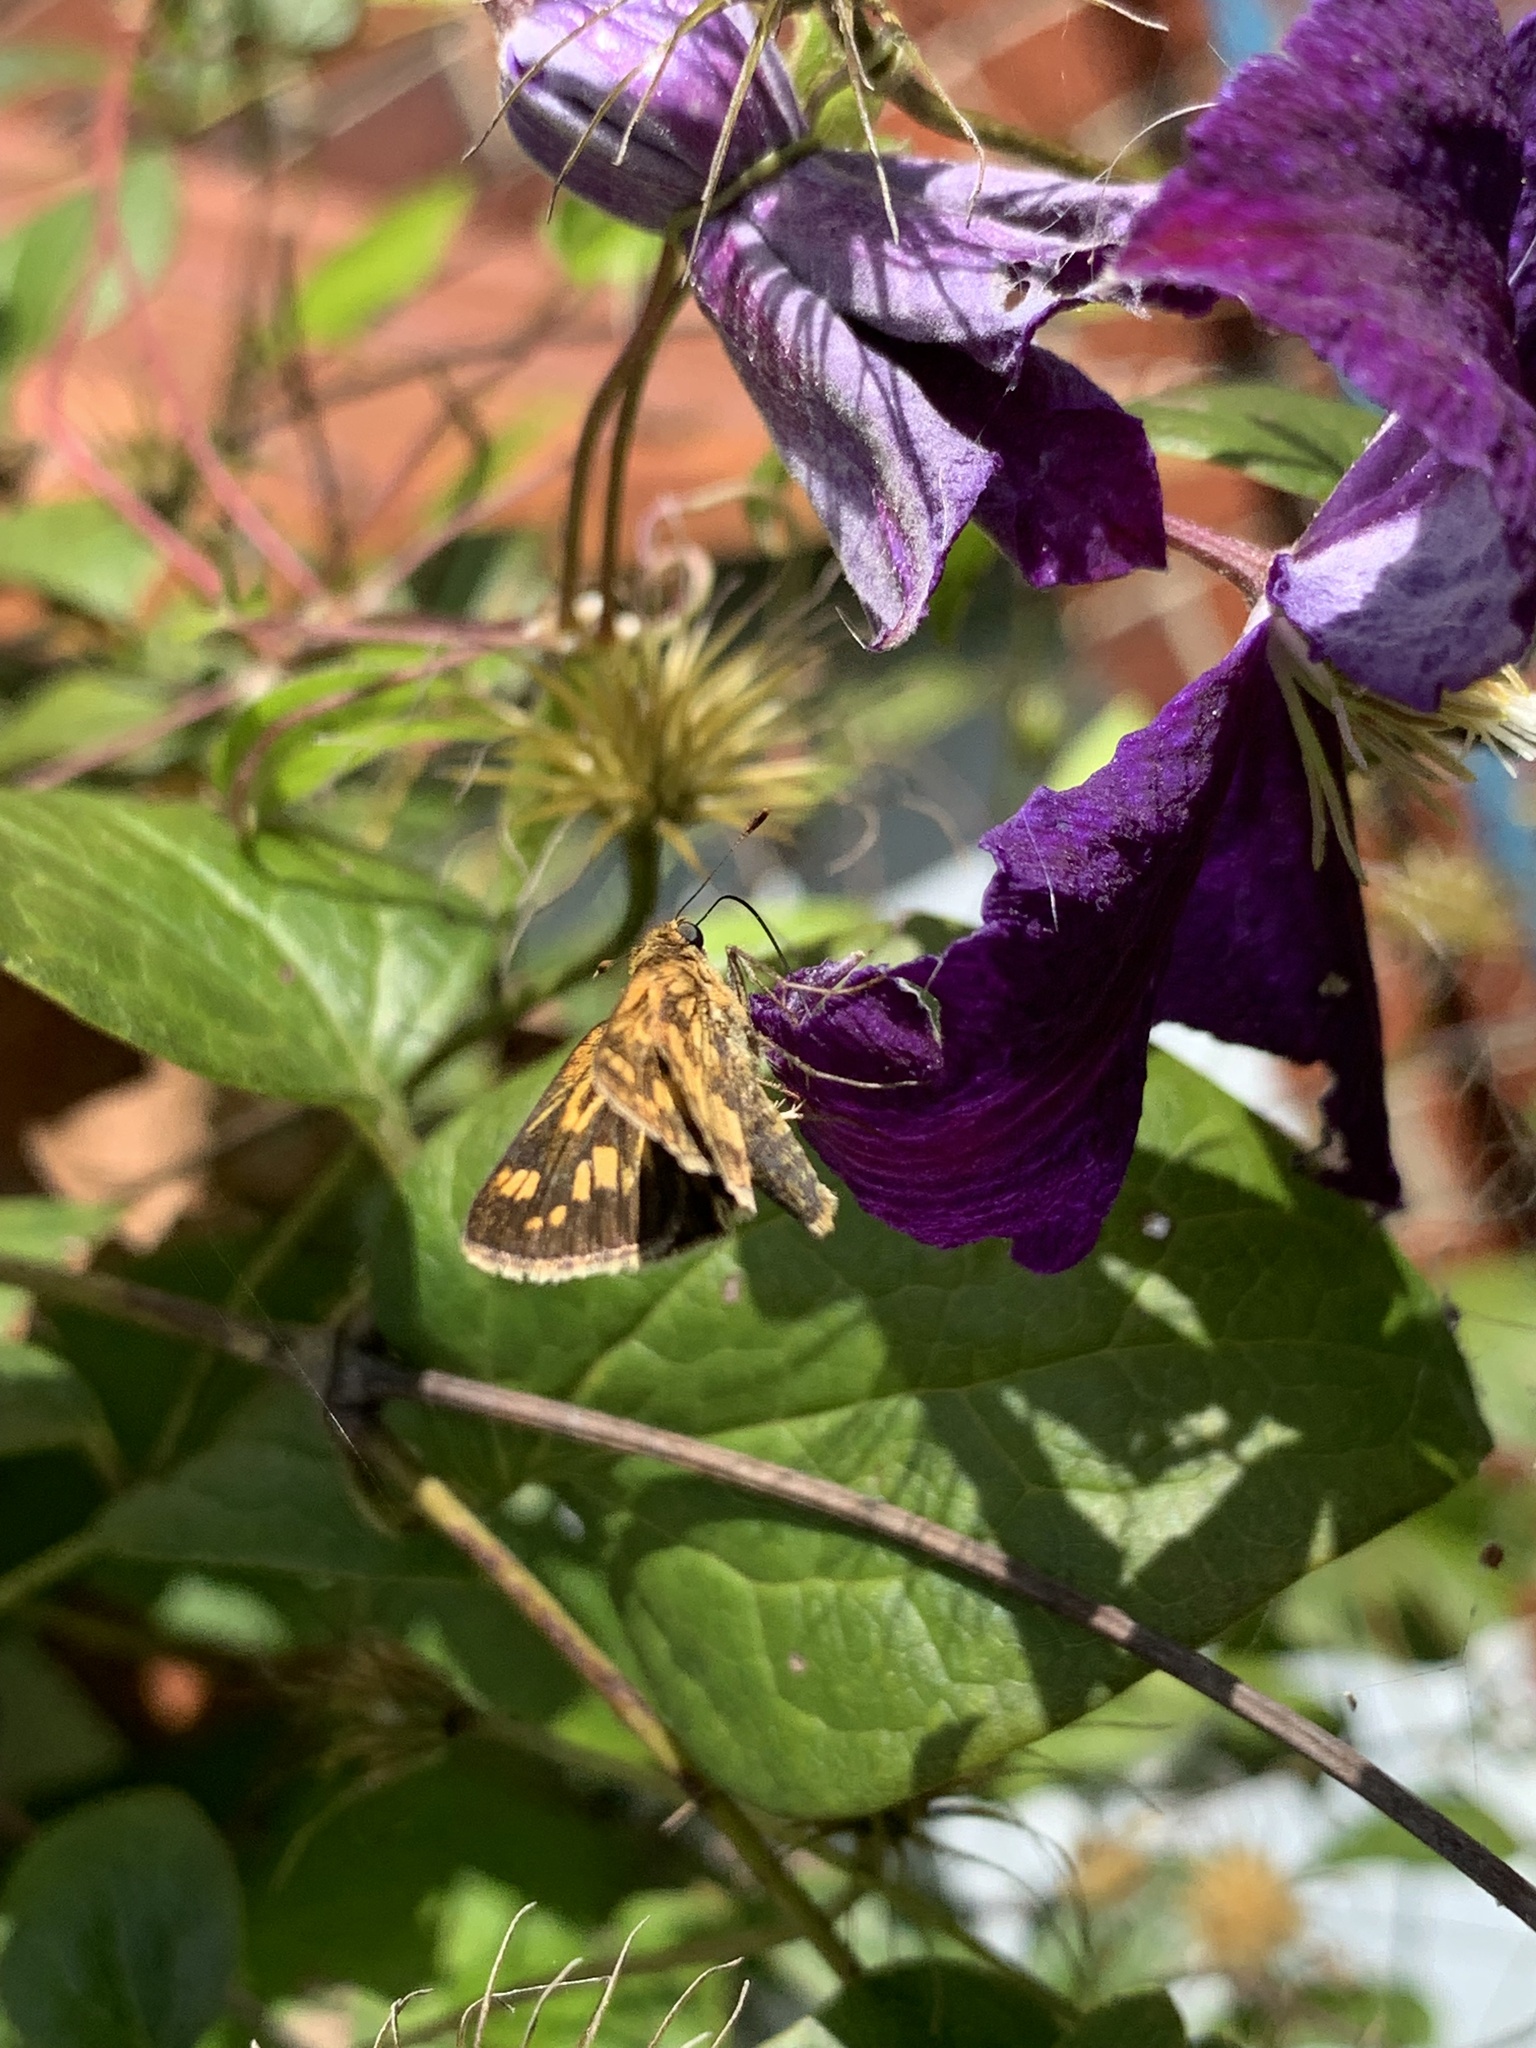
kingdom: Animalia
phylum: Arthropoda
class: Insecta
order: Lepidoptera
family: Hesperiidae
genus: Polites
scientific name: Polites coras
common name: Peck's skipper
